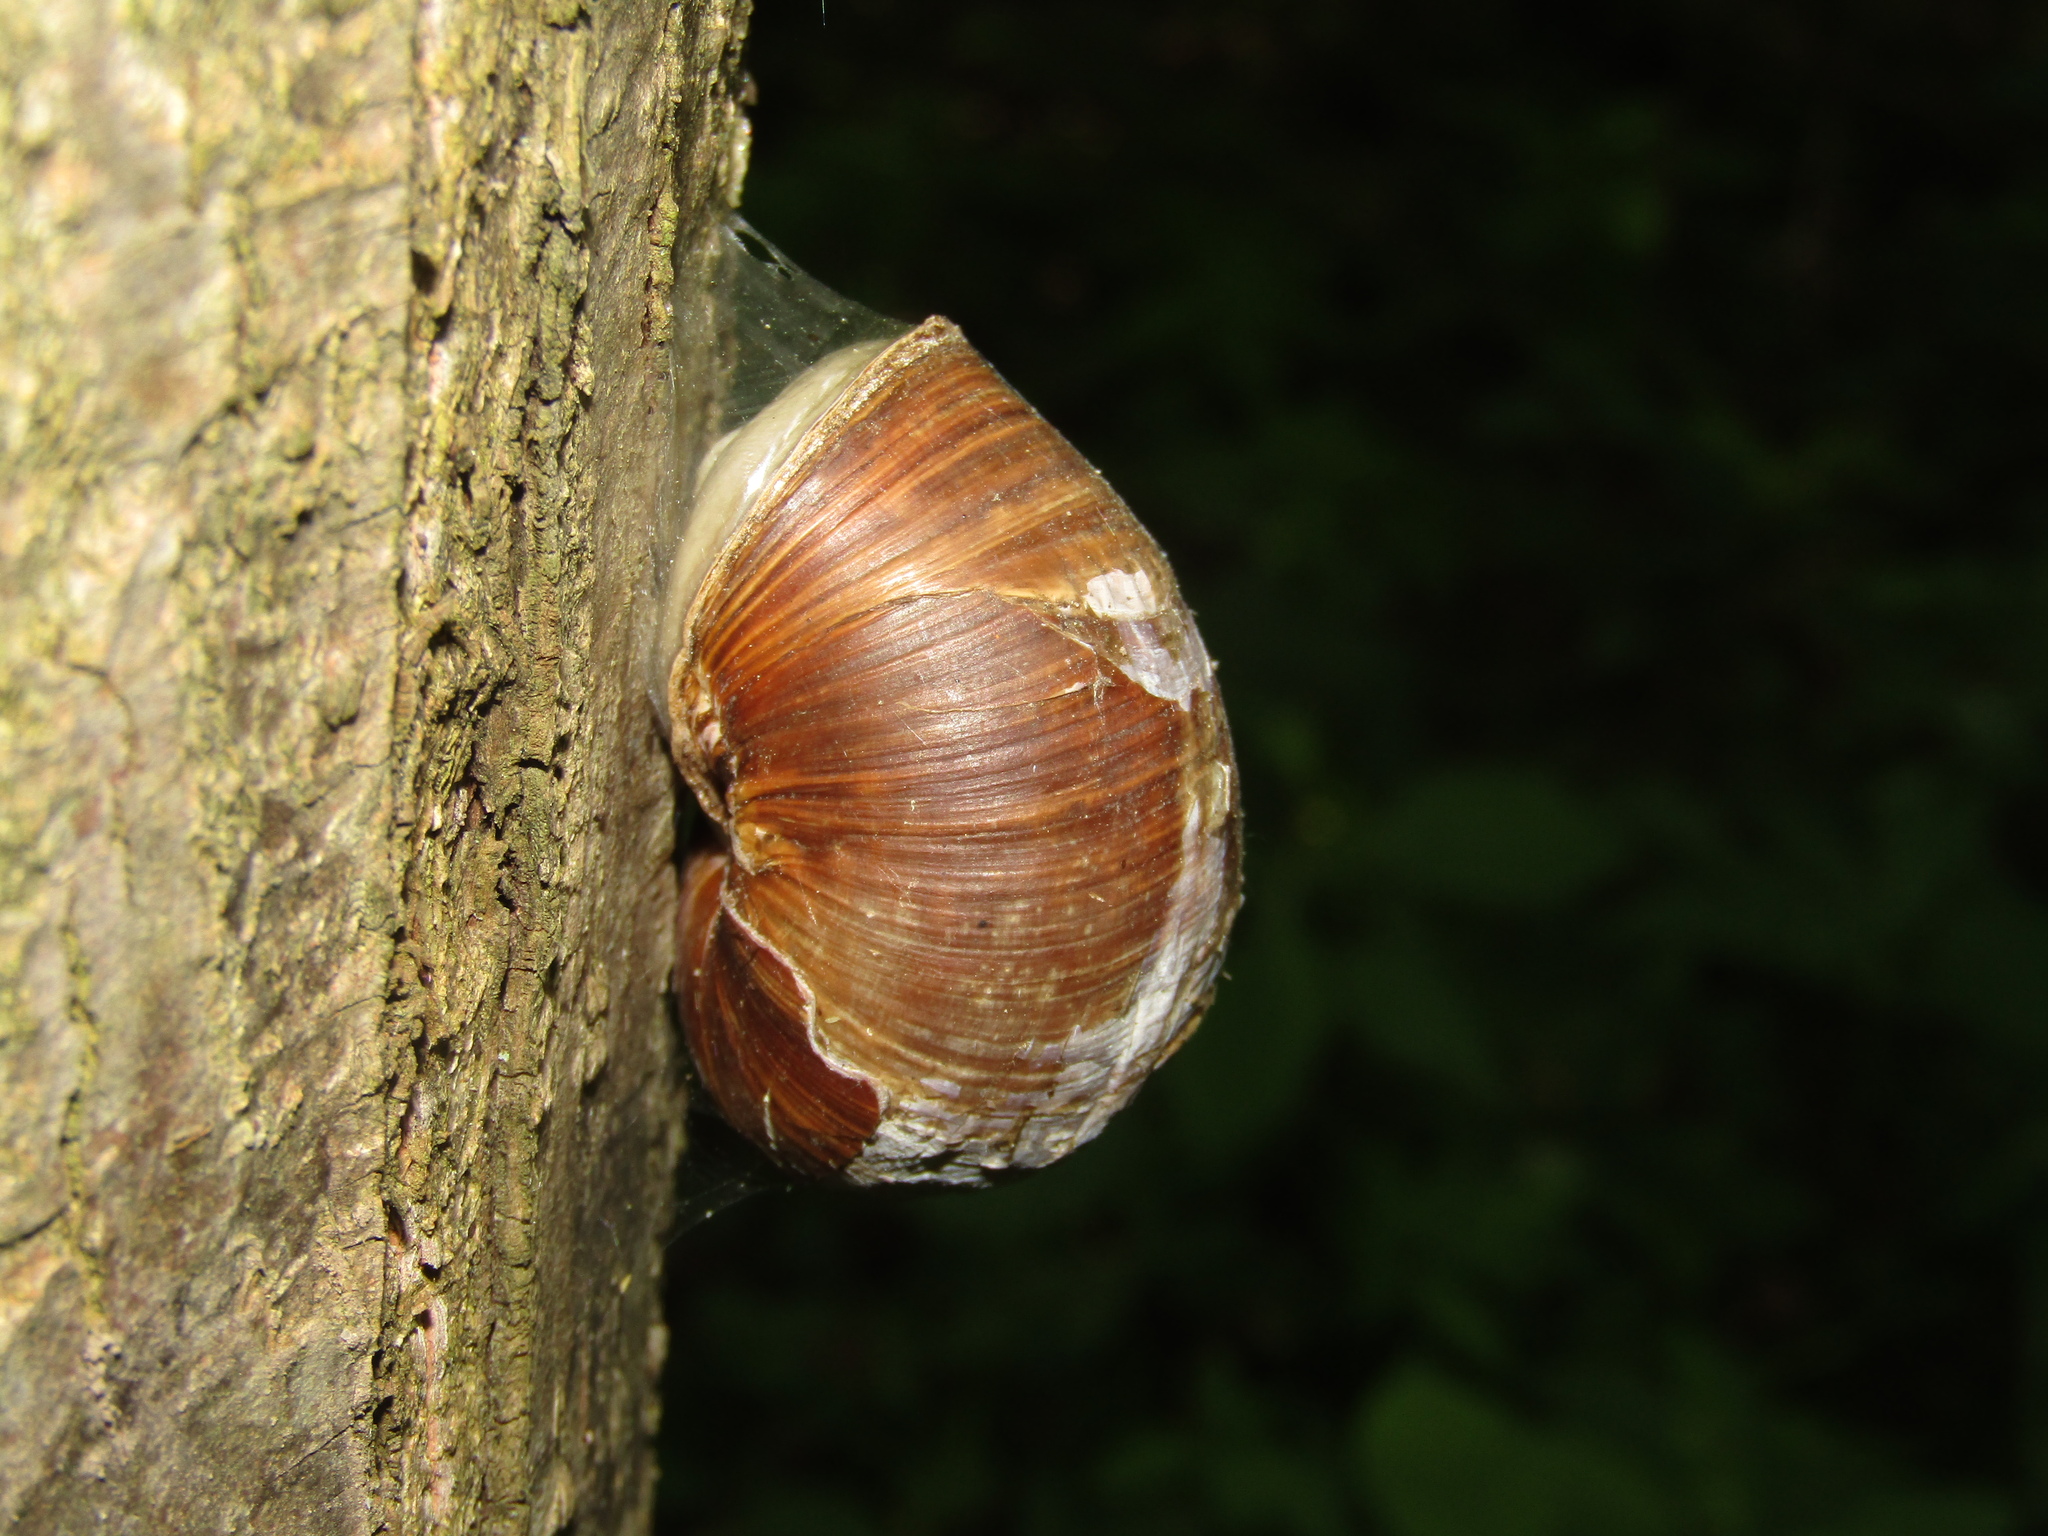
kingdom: Animalia
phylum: Mollusca
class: Gastropoda
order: Stylommatophora
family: Helicidae
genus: Helix
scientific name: Helix pomatia
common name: Roman snail
